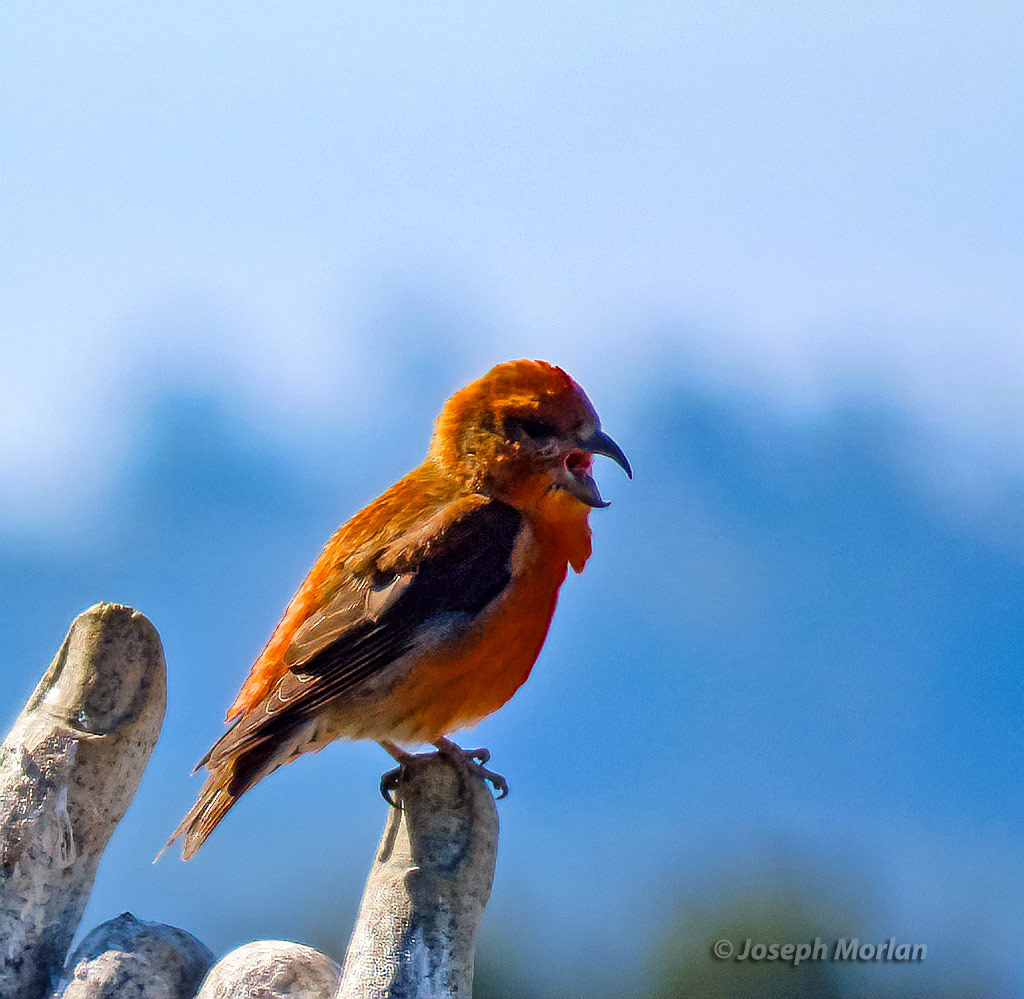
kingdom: Animalia
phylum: Chordata
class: Aves
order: Passeriformes
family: Fringillidae
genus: Loxia
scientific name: Loxia curvirostra
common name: Red crossbill
